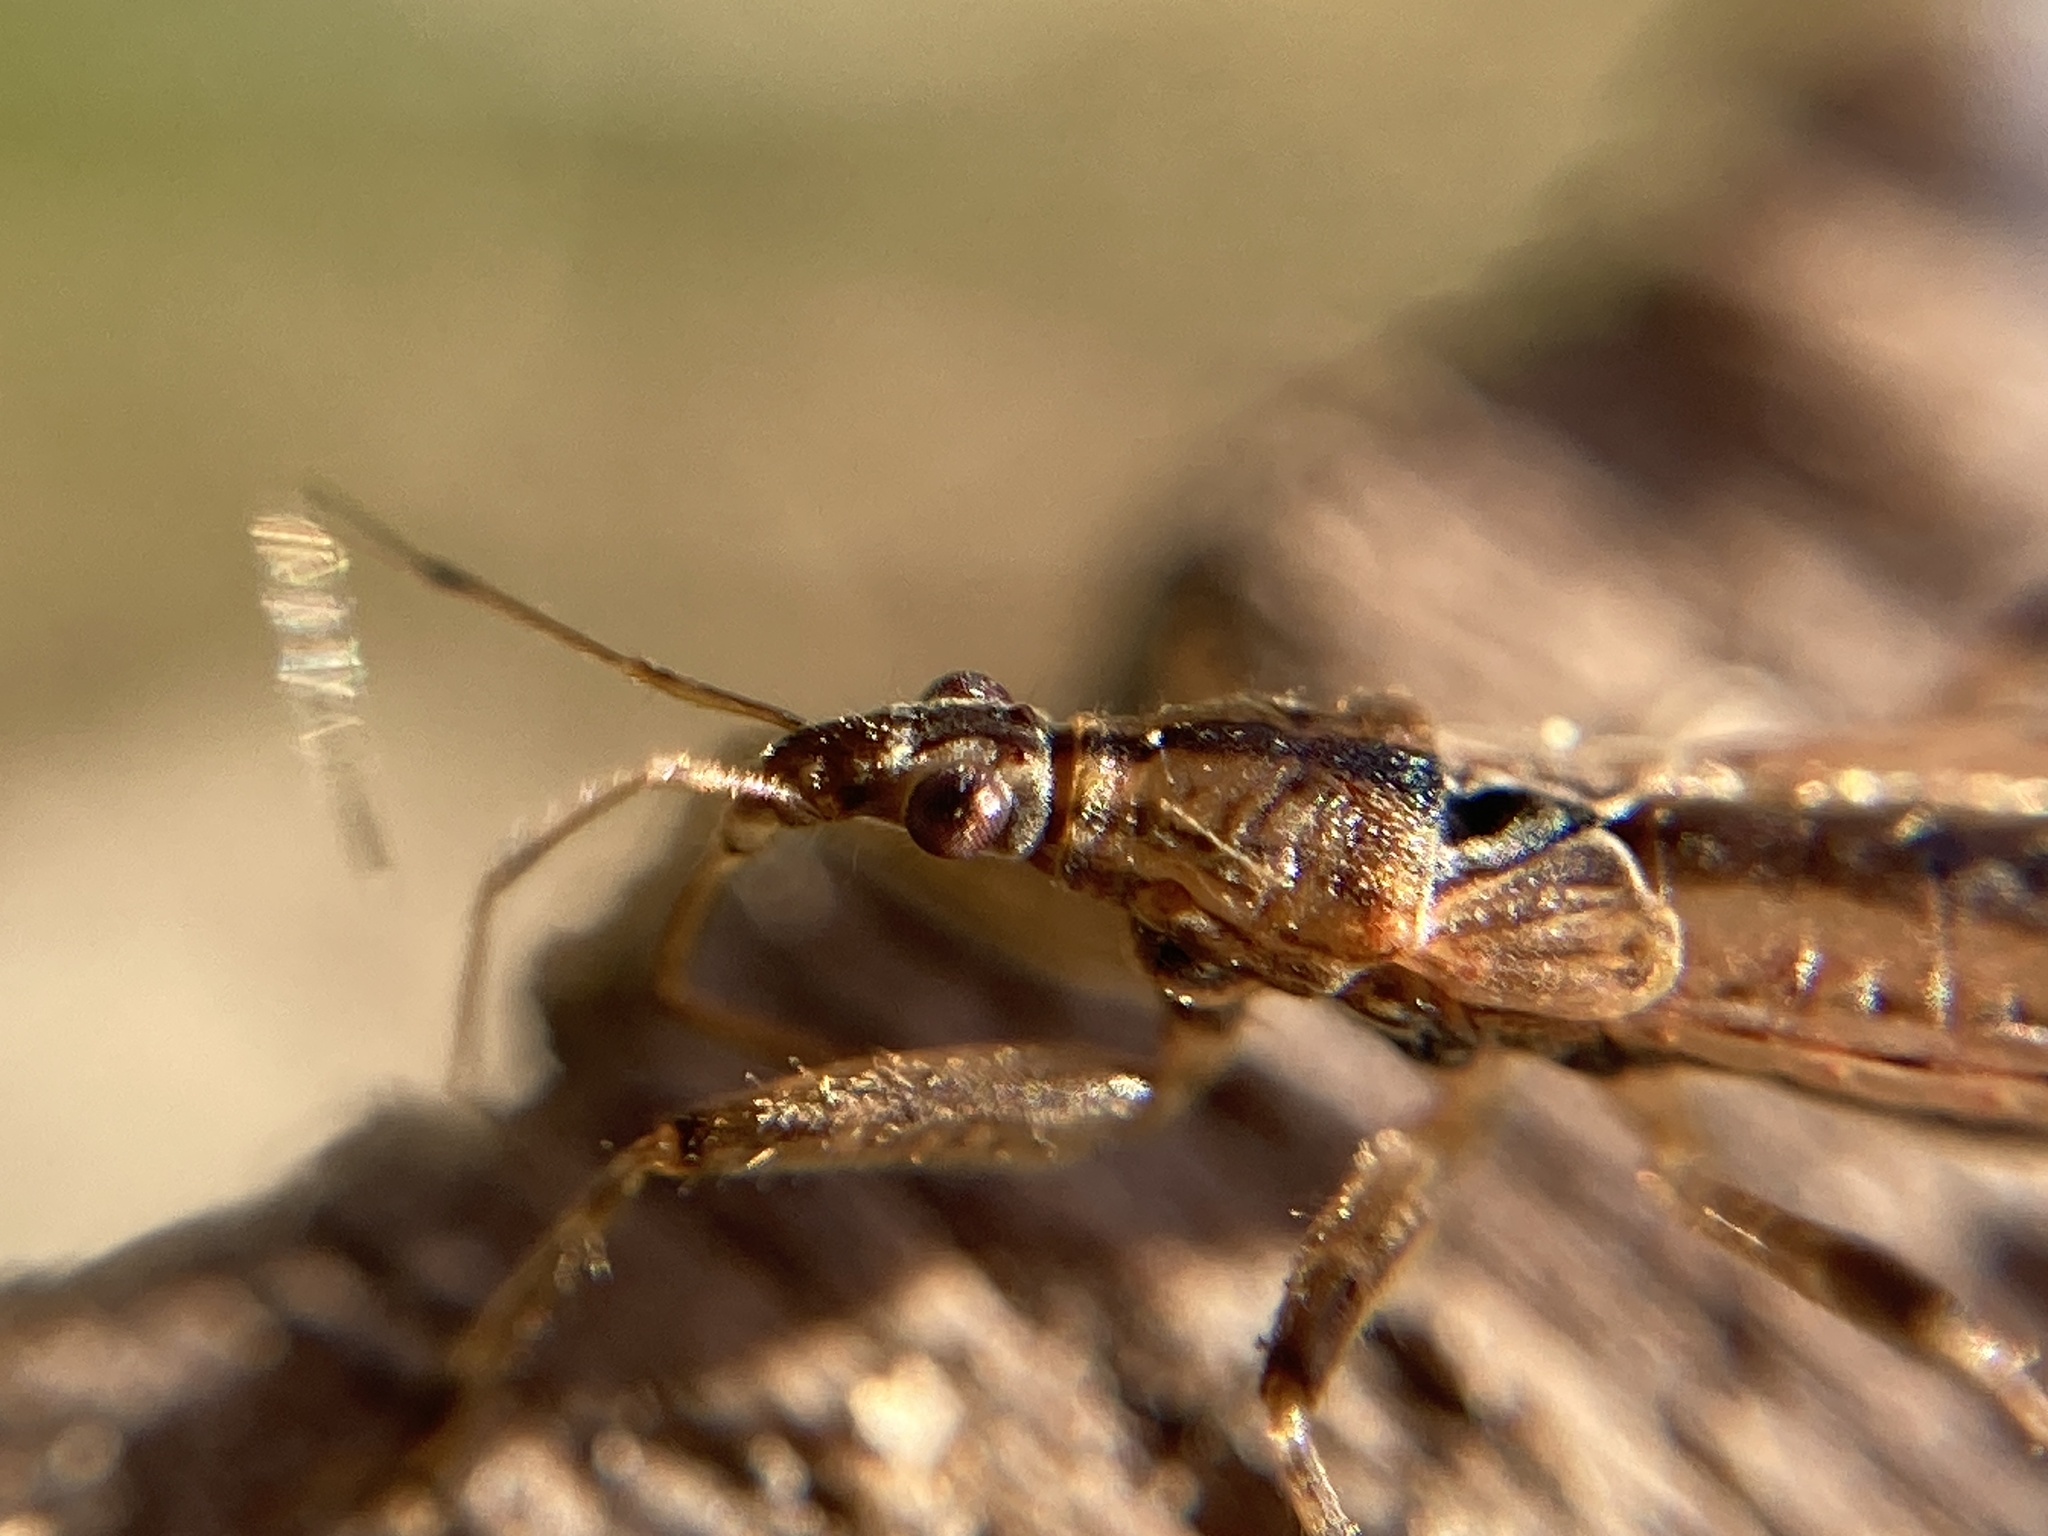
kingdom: Animalia
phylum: Arthropoda
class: Insecta
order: Hemiptera
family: Nabidae
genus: Stenonabis
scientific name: Stenonabis
